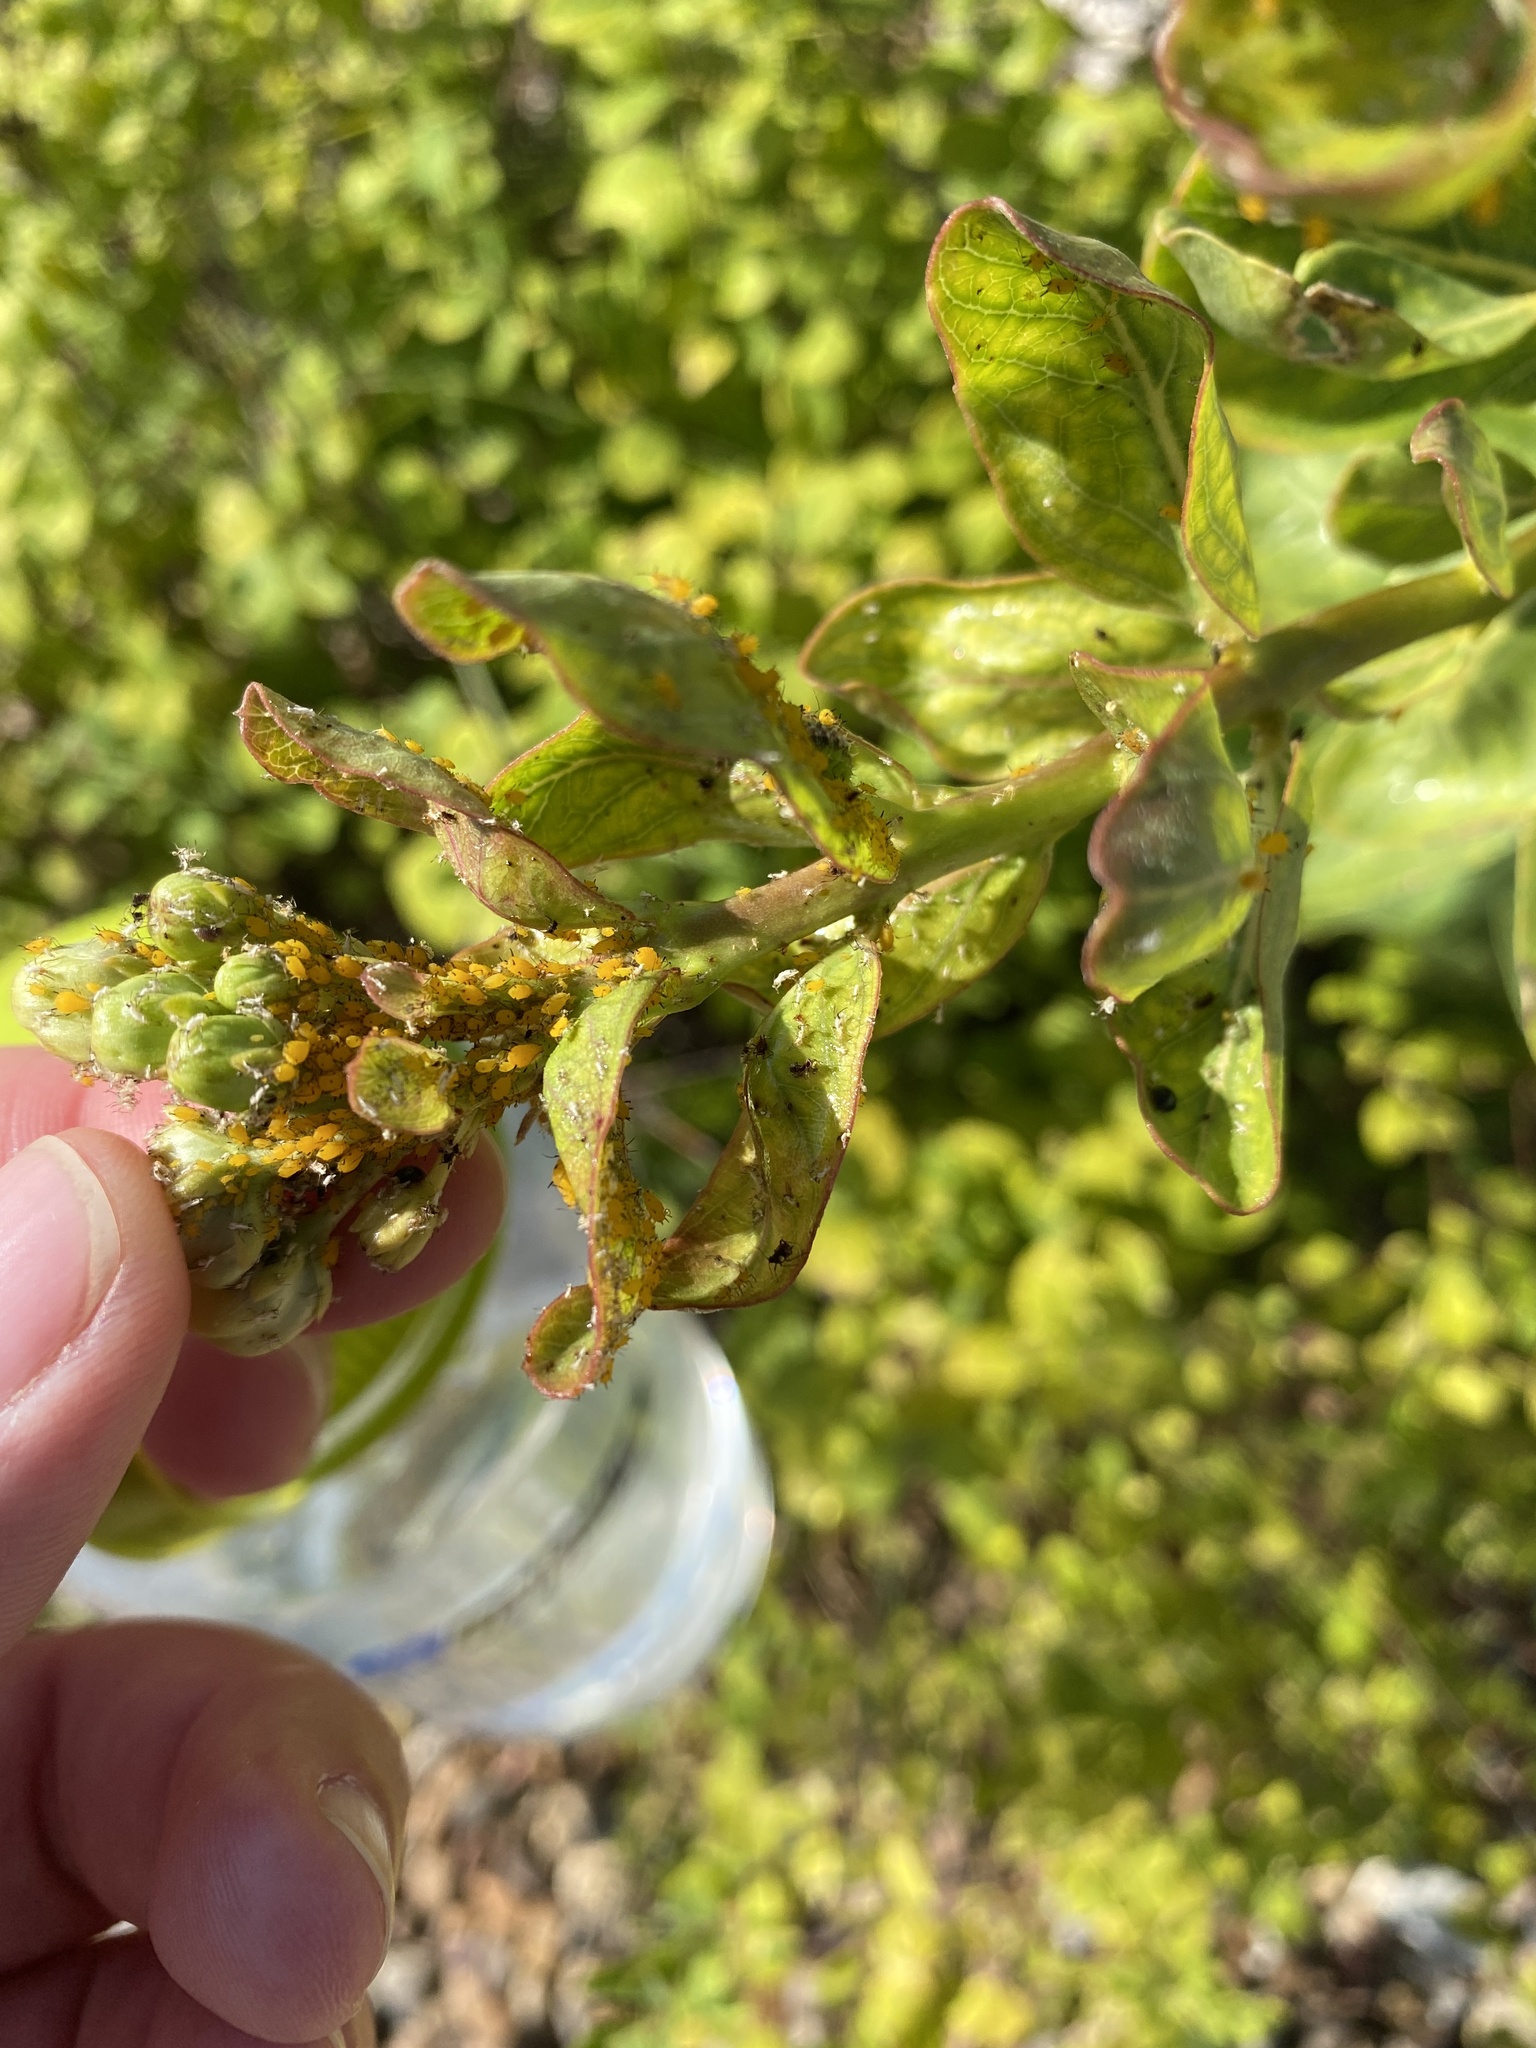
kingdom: Plantae
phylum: Tracheophyta
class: Magnoliopsida
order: Gentianales
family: Apocynaceae
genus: Asclepias
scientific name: Asclepias viridis
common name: Antelope-horns
